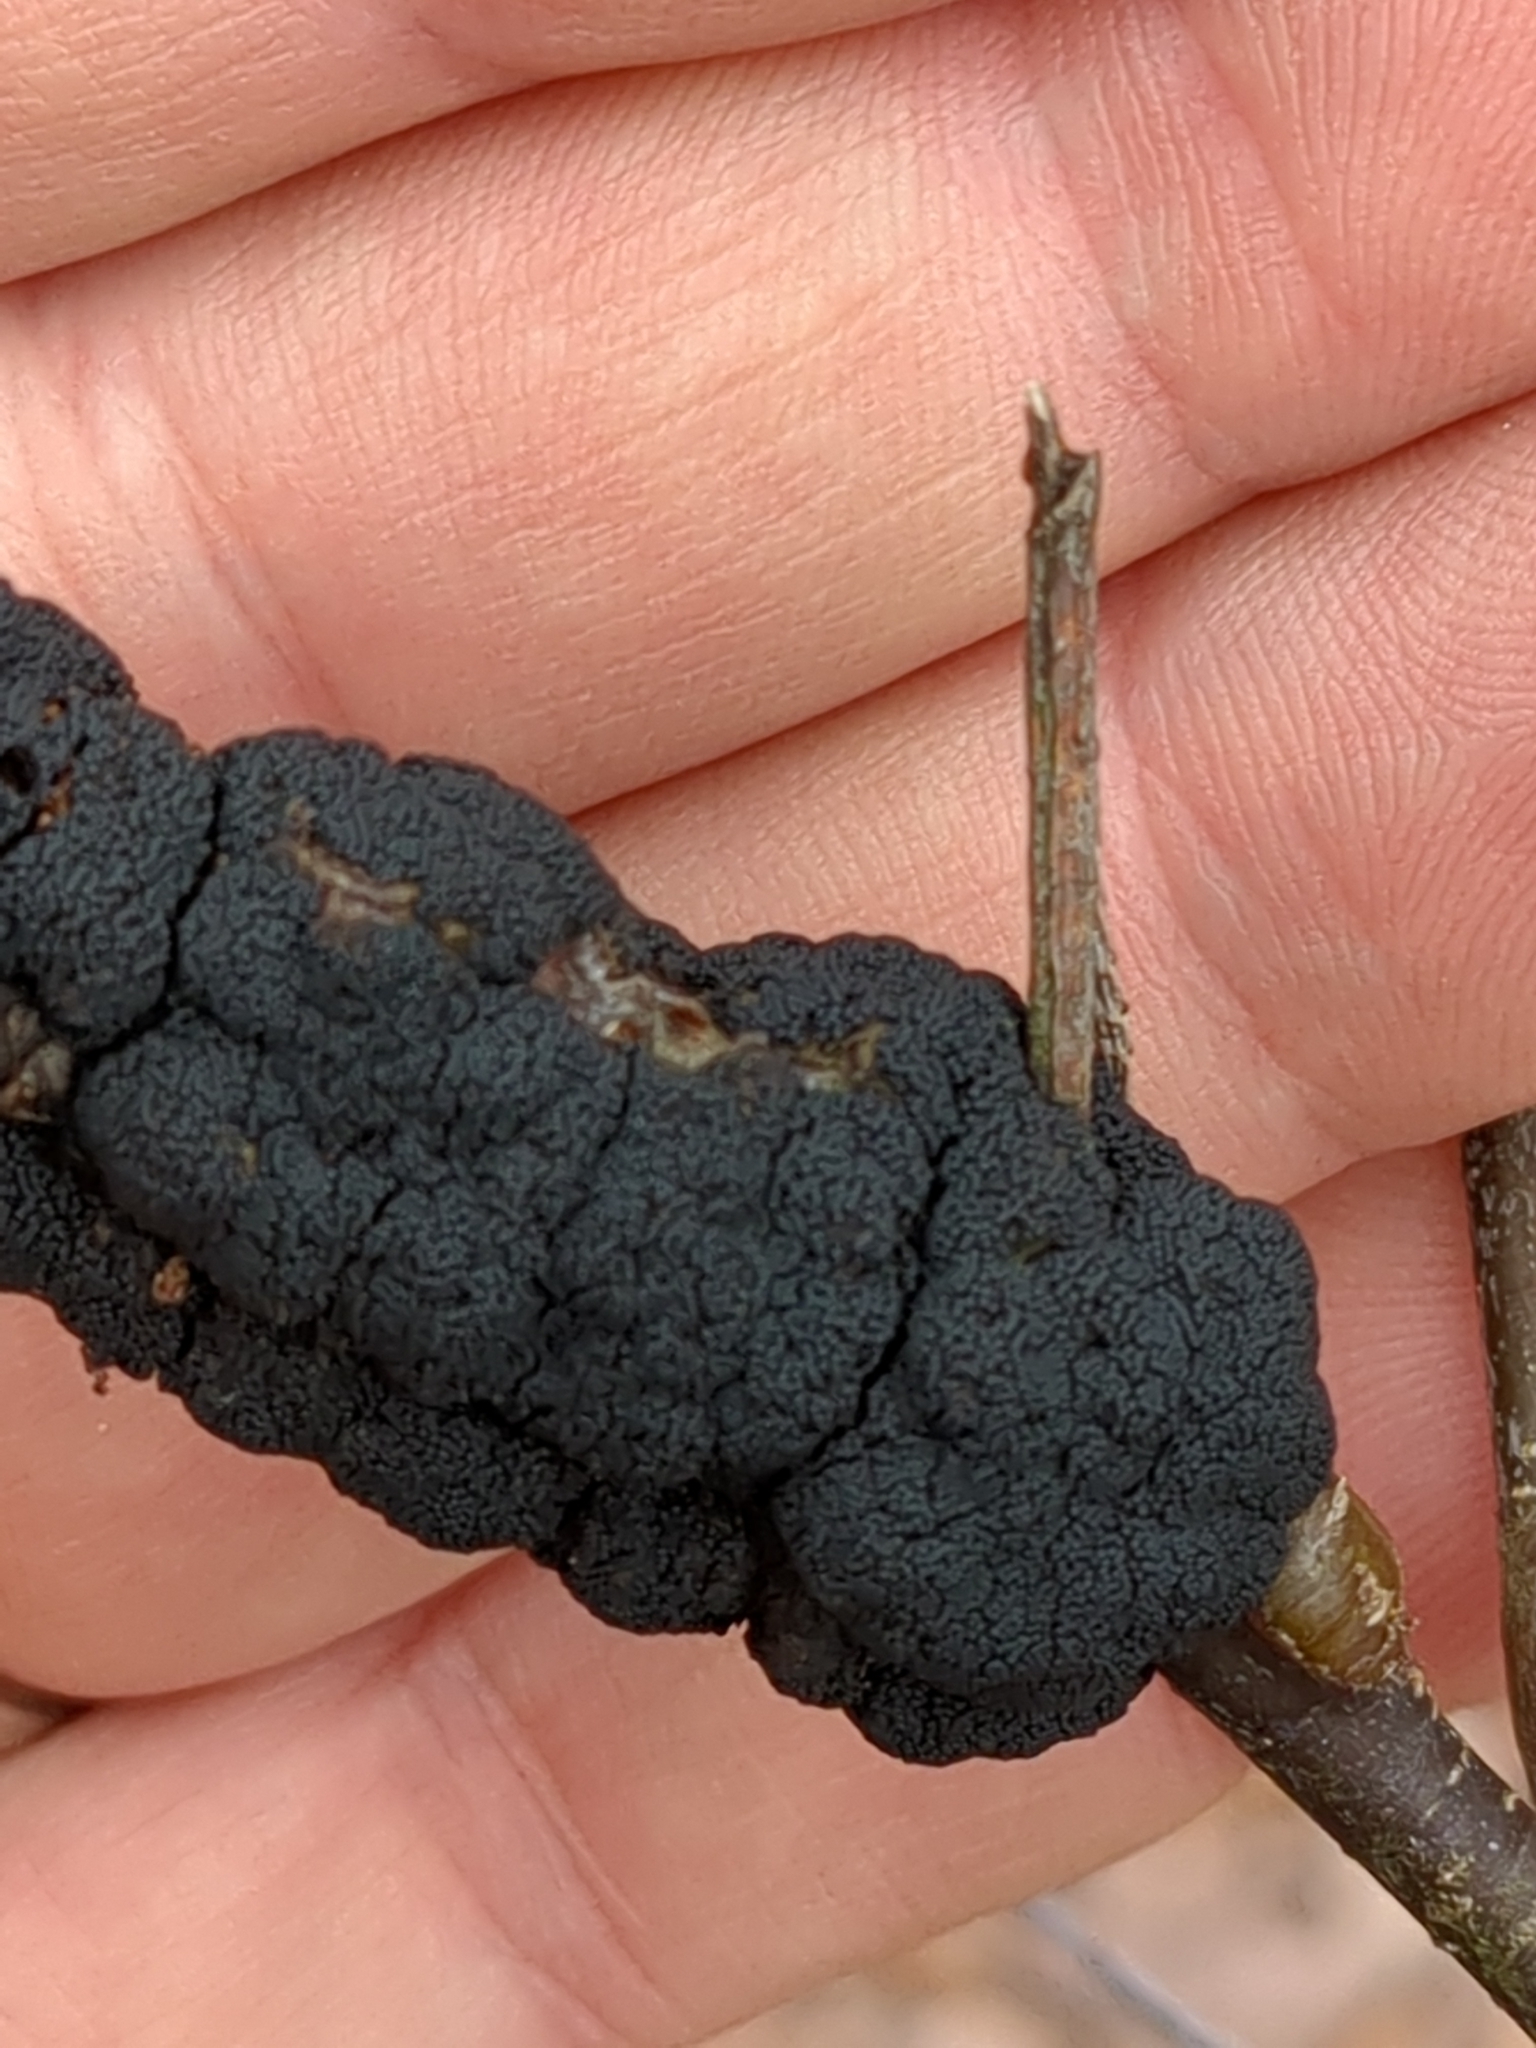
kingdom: Fungi
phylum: Ascomycota
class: Dothideomycetes
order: Venturiales
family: Venturiaceae
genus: Apiosporina
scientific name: Apiosporina morbosa
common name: Black knot
